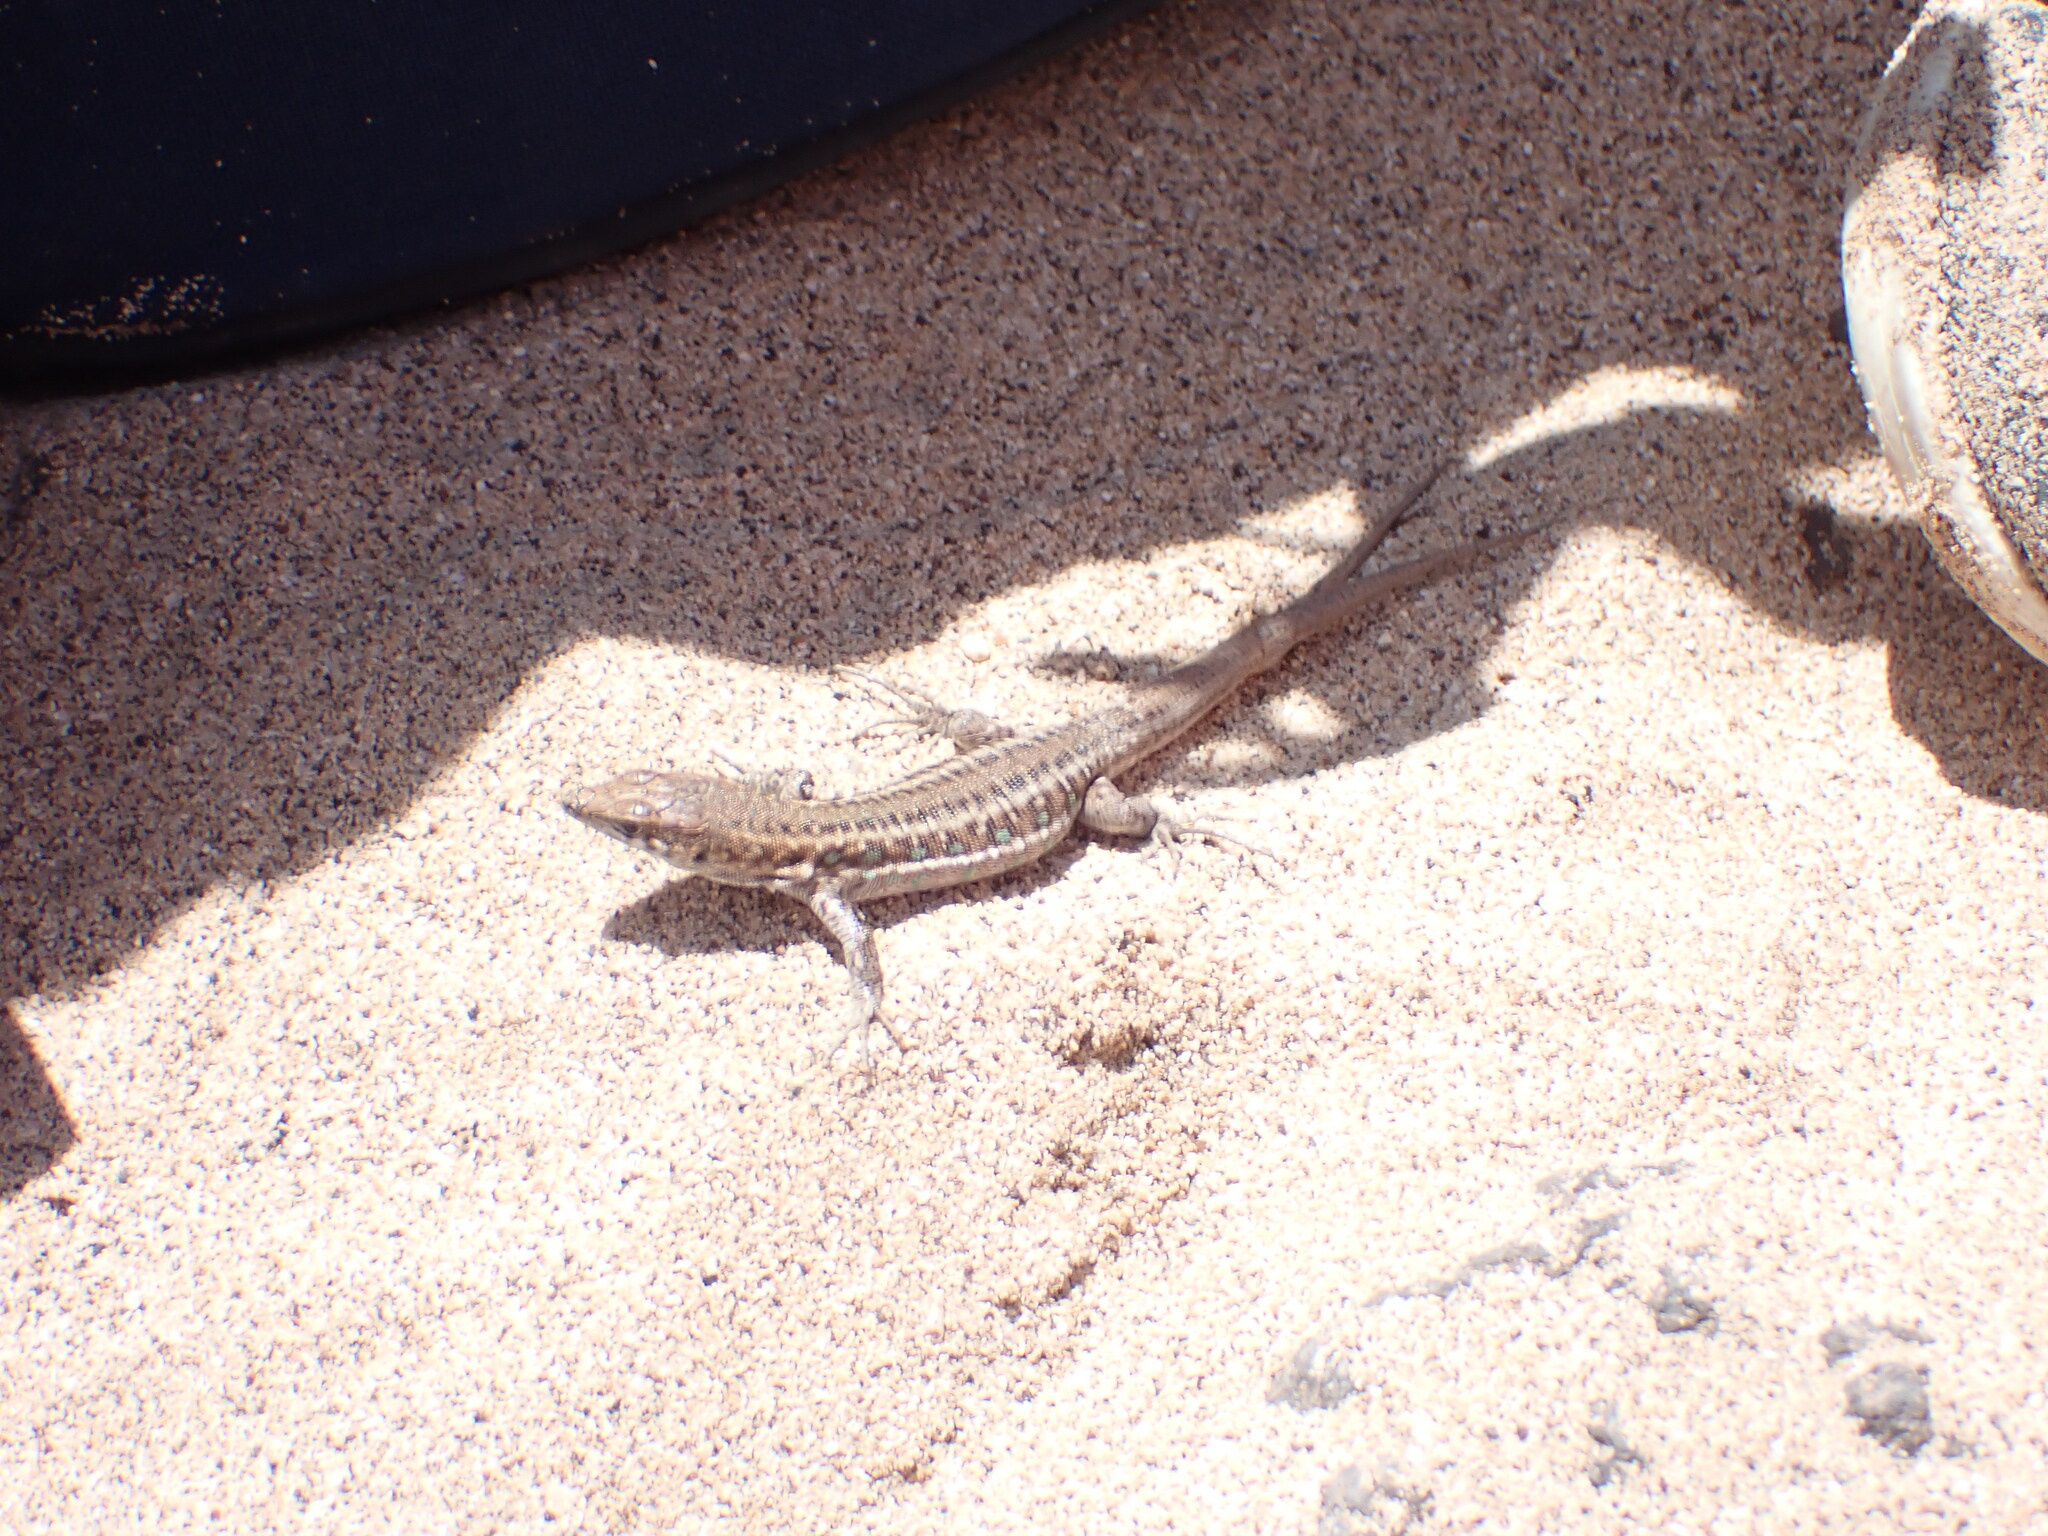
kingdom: Animalia
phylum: Chordata
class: Squamata
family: Lacertidae
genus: Gallotia
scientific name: Gallotia atlantica
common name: Atlantic lizard
